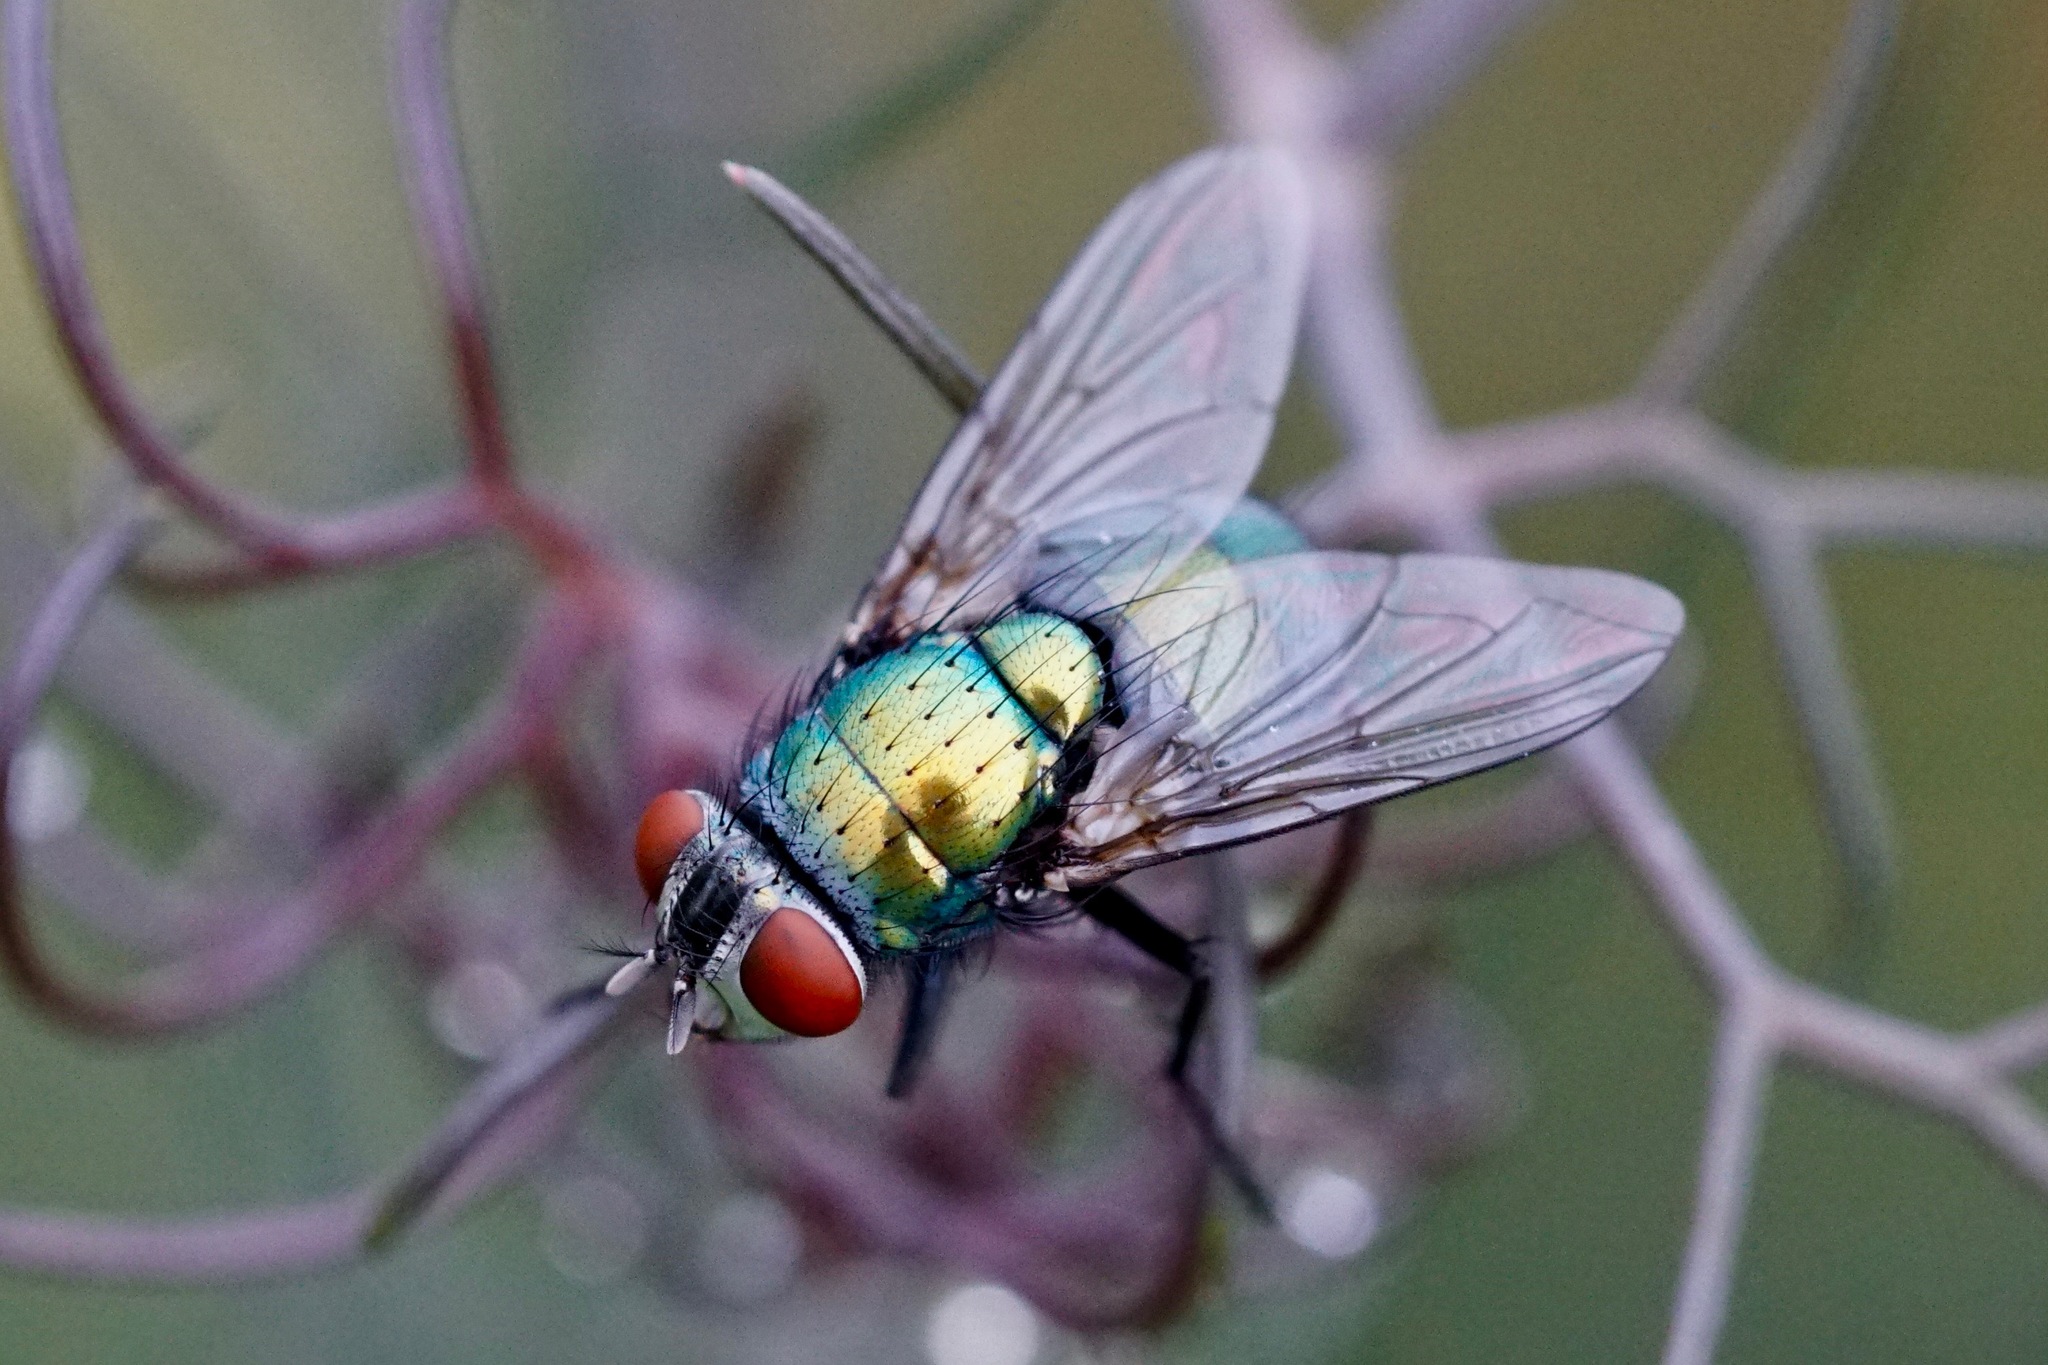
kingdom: Animalia
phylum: Arthropoda
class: Insecta
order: Diptera
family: Calliphoridae
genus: Lucilia
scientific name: Lucilia sericata
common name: Blow fly
